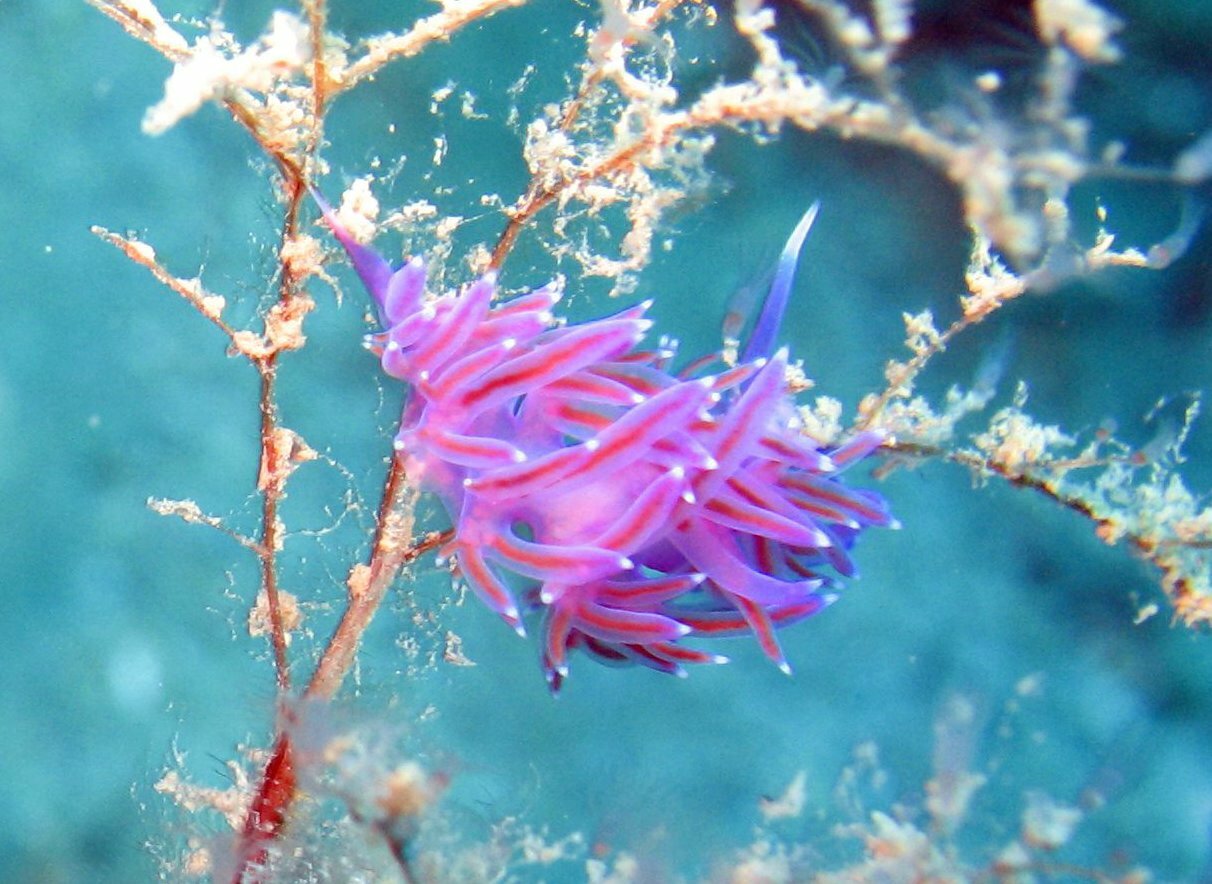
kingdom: Animalia
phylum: Mollusca
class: Gastropoda
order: Nudibranchia
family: Flabellinidae
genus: Flabellina
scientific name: Flabellina affinis
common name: Mediterranean violet aeolid
